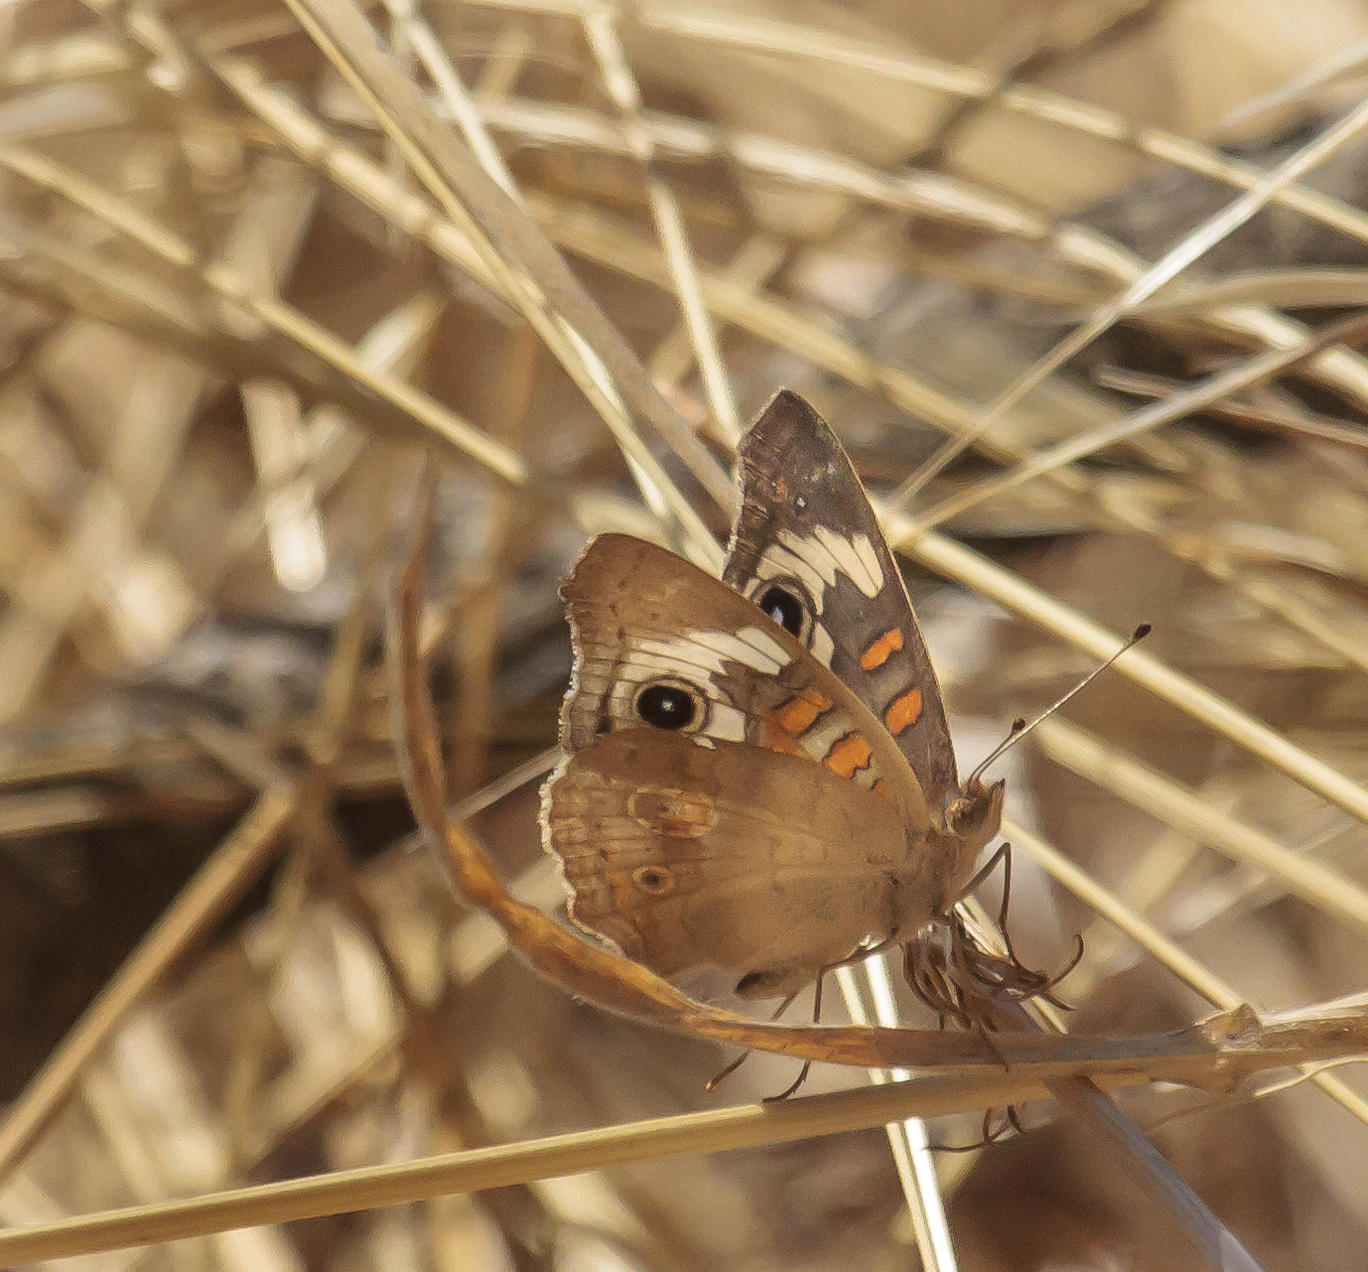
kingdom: Animalia
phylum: Arthropoda
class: Insecta
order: Lepidoptera
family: Nymphalidae
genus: Junonia
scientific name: Junonia grisea
